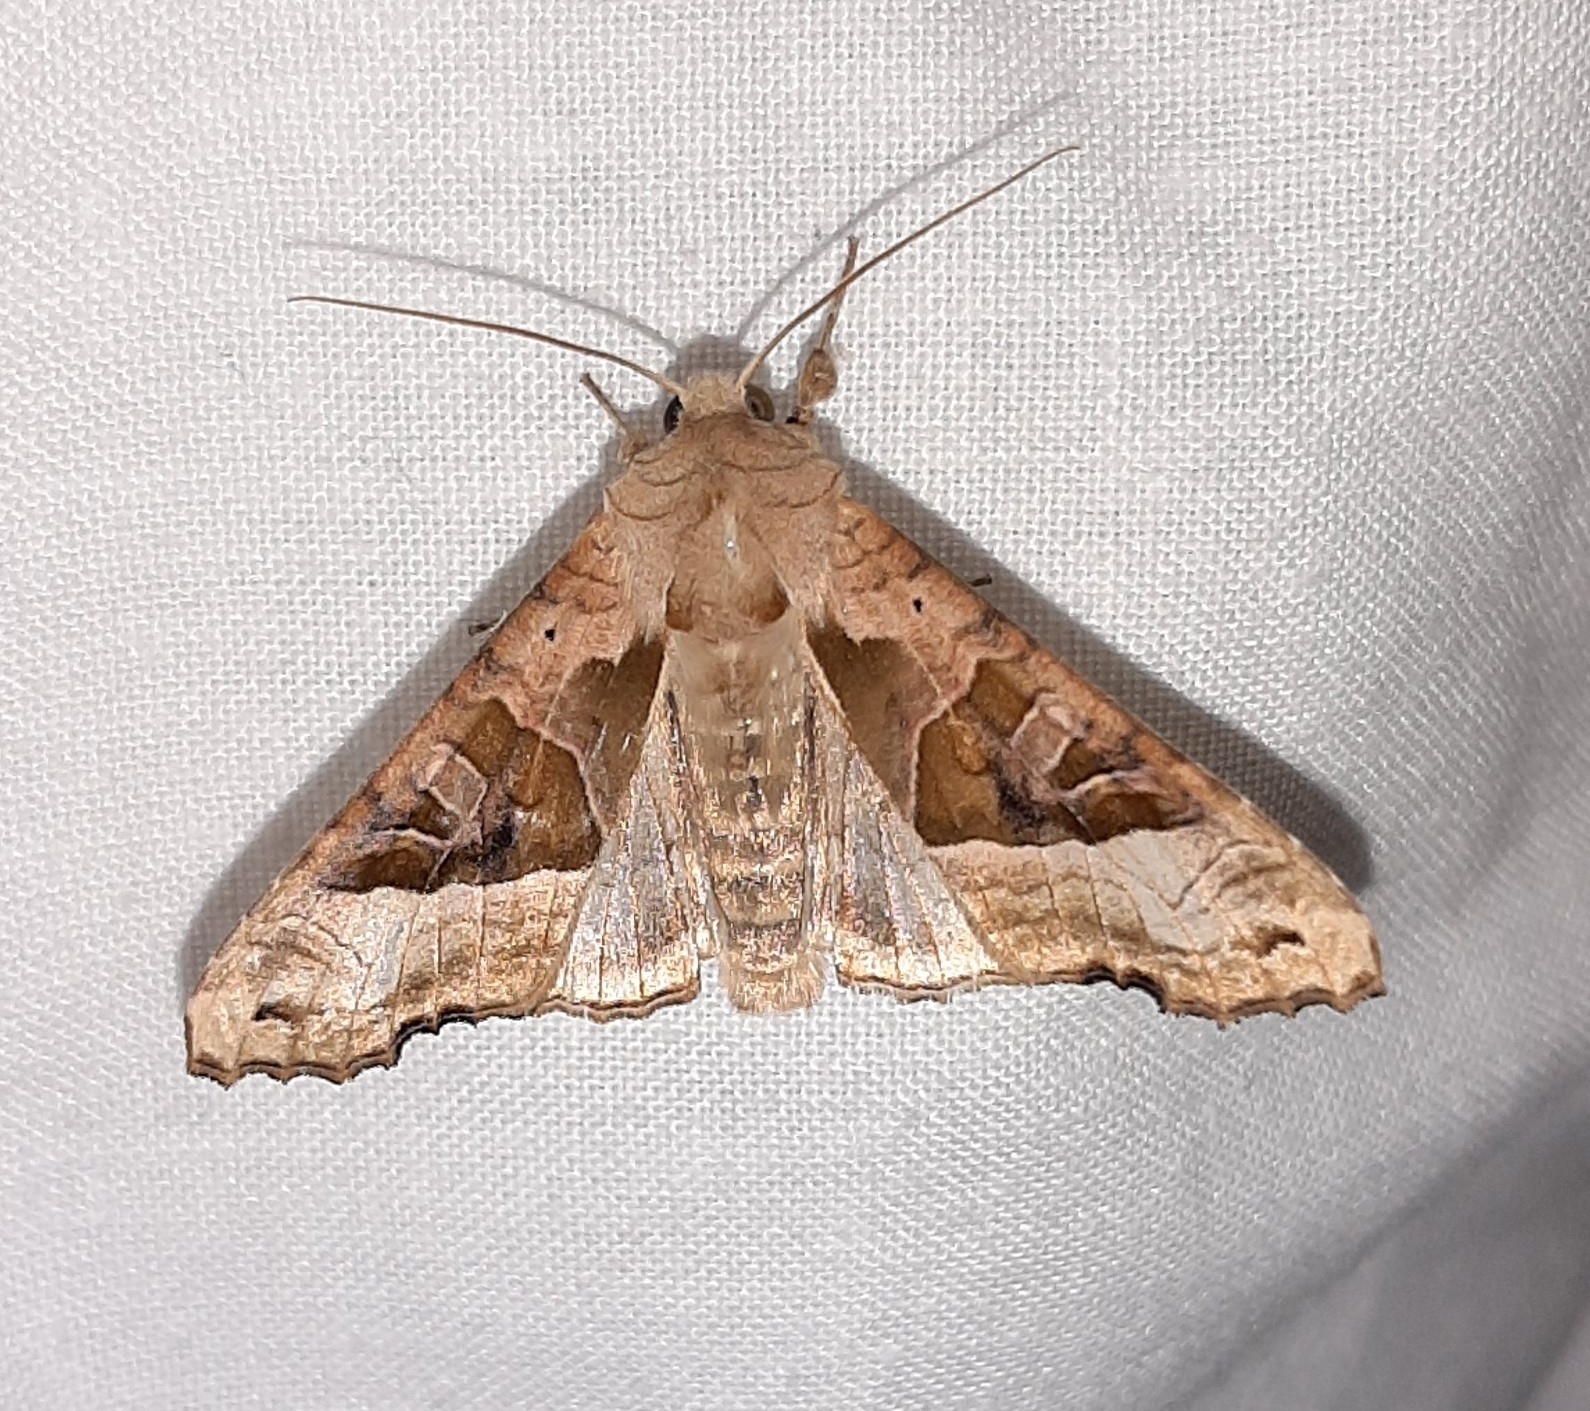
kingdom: Animalia
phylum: Arthropoda
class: Insecta
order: Lepidoptera
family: Noctuidae
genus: Phlogophora
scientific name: Phlogophora meticulosa
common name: Angle shades
